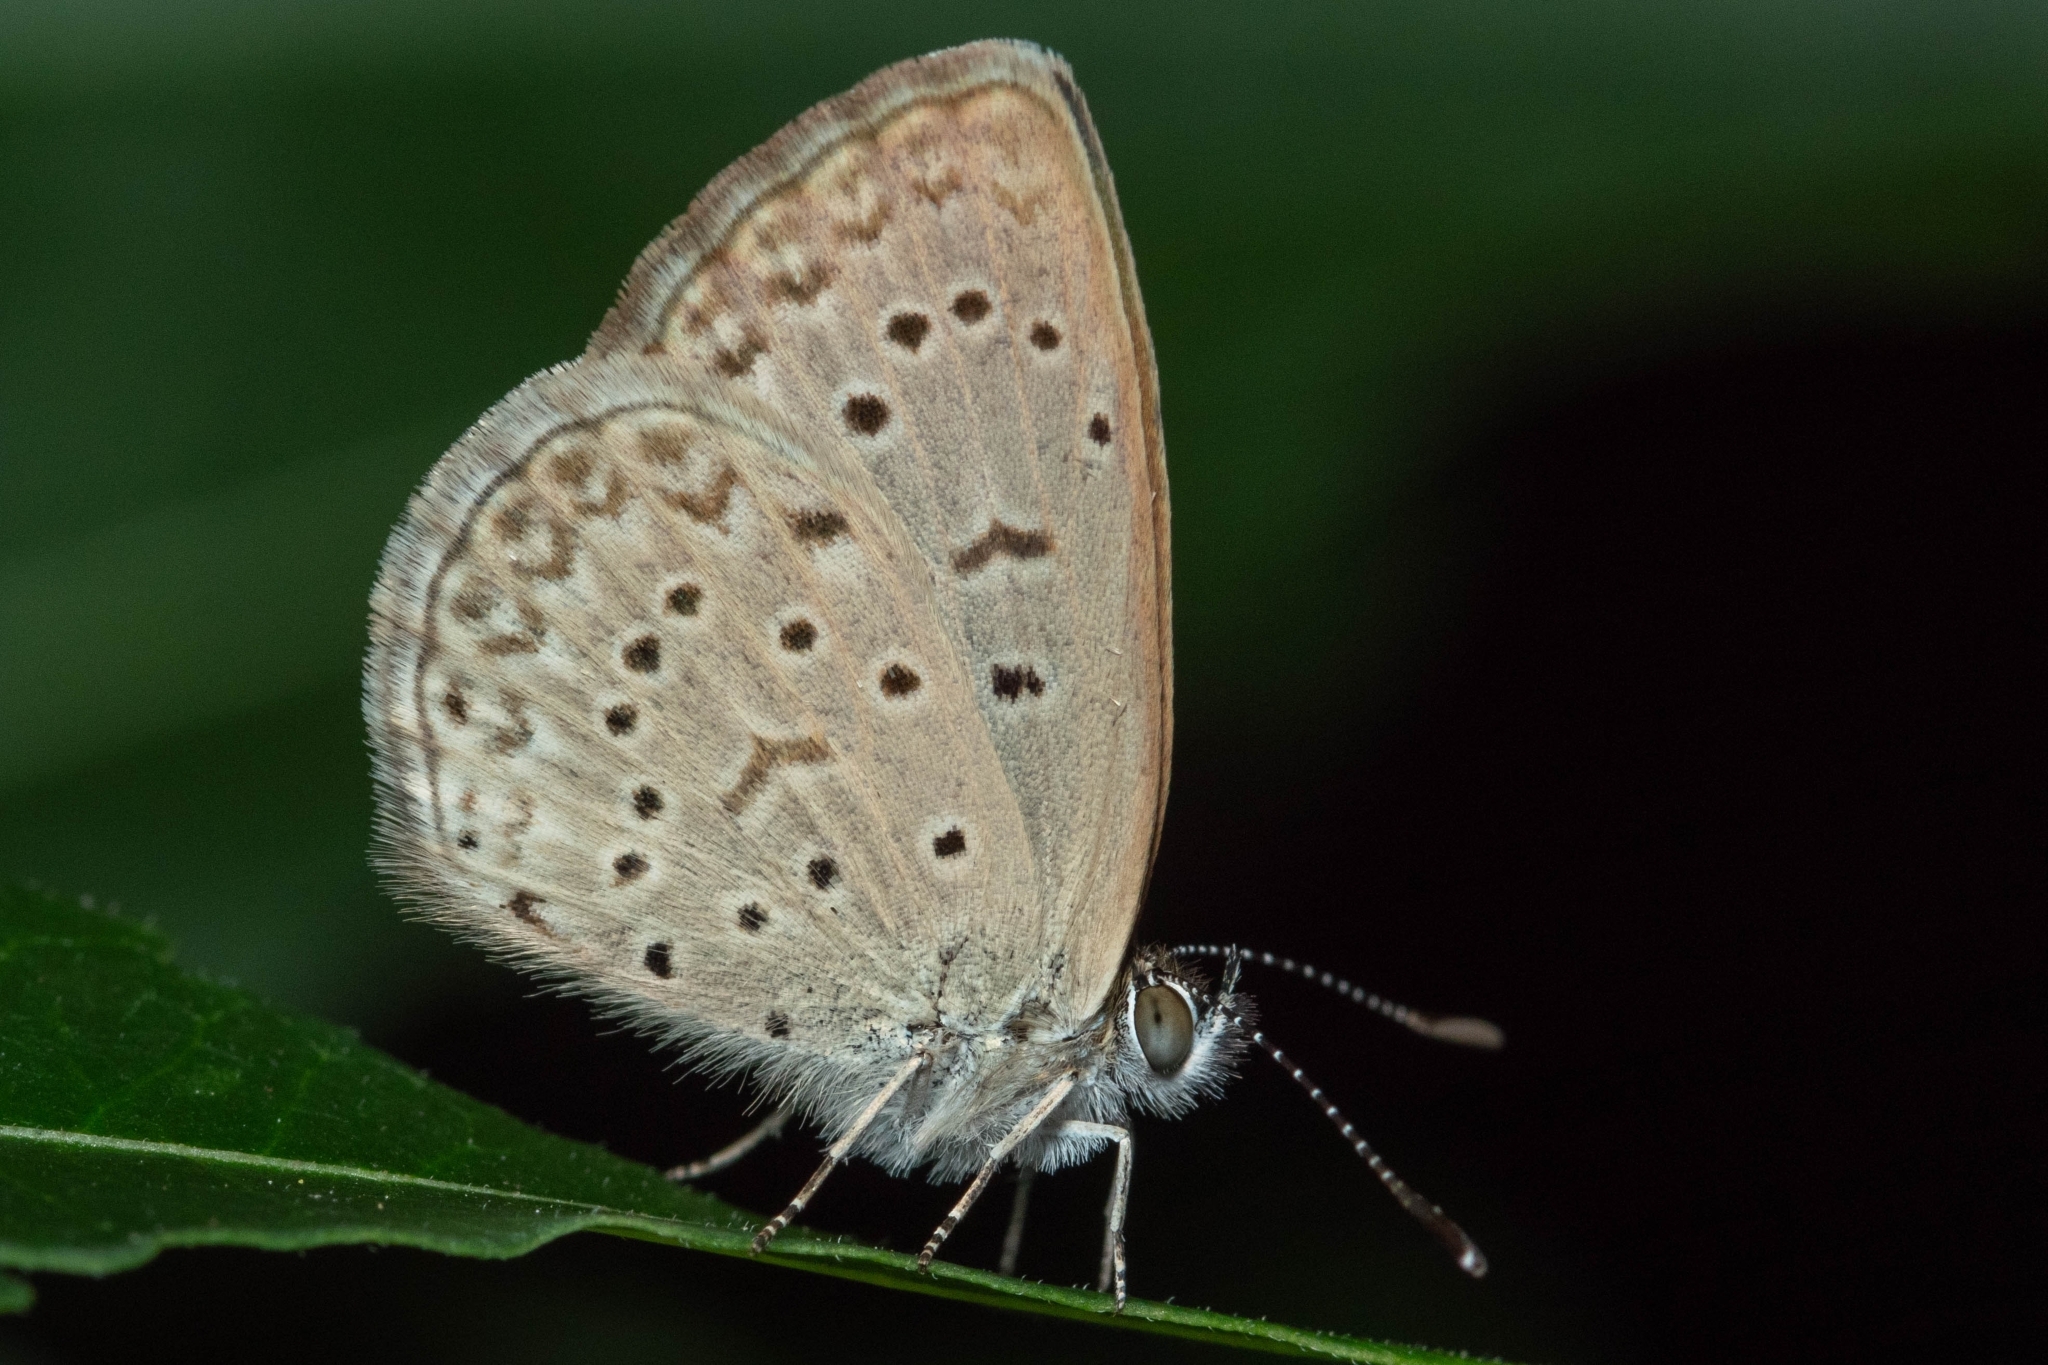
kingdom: Animalia
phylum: Arthropoda
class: Insecta
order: Lepidoptera
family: Lycaenidae
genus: Zizeeria
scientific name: Zizeeria knysna
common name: African grass blue
